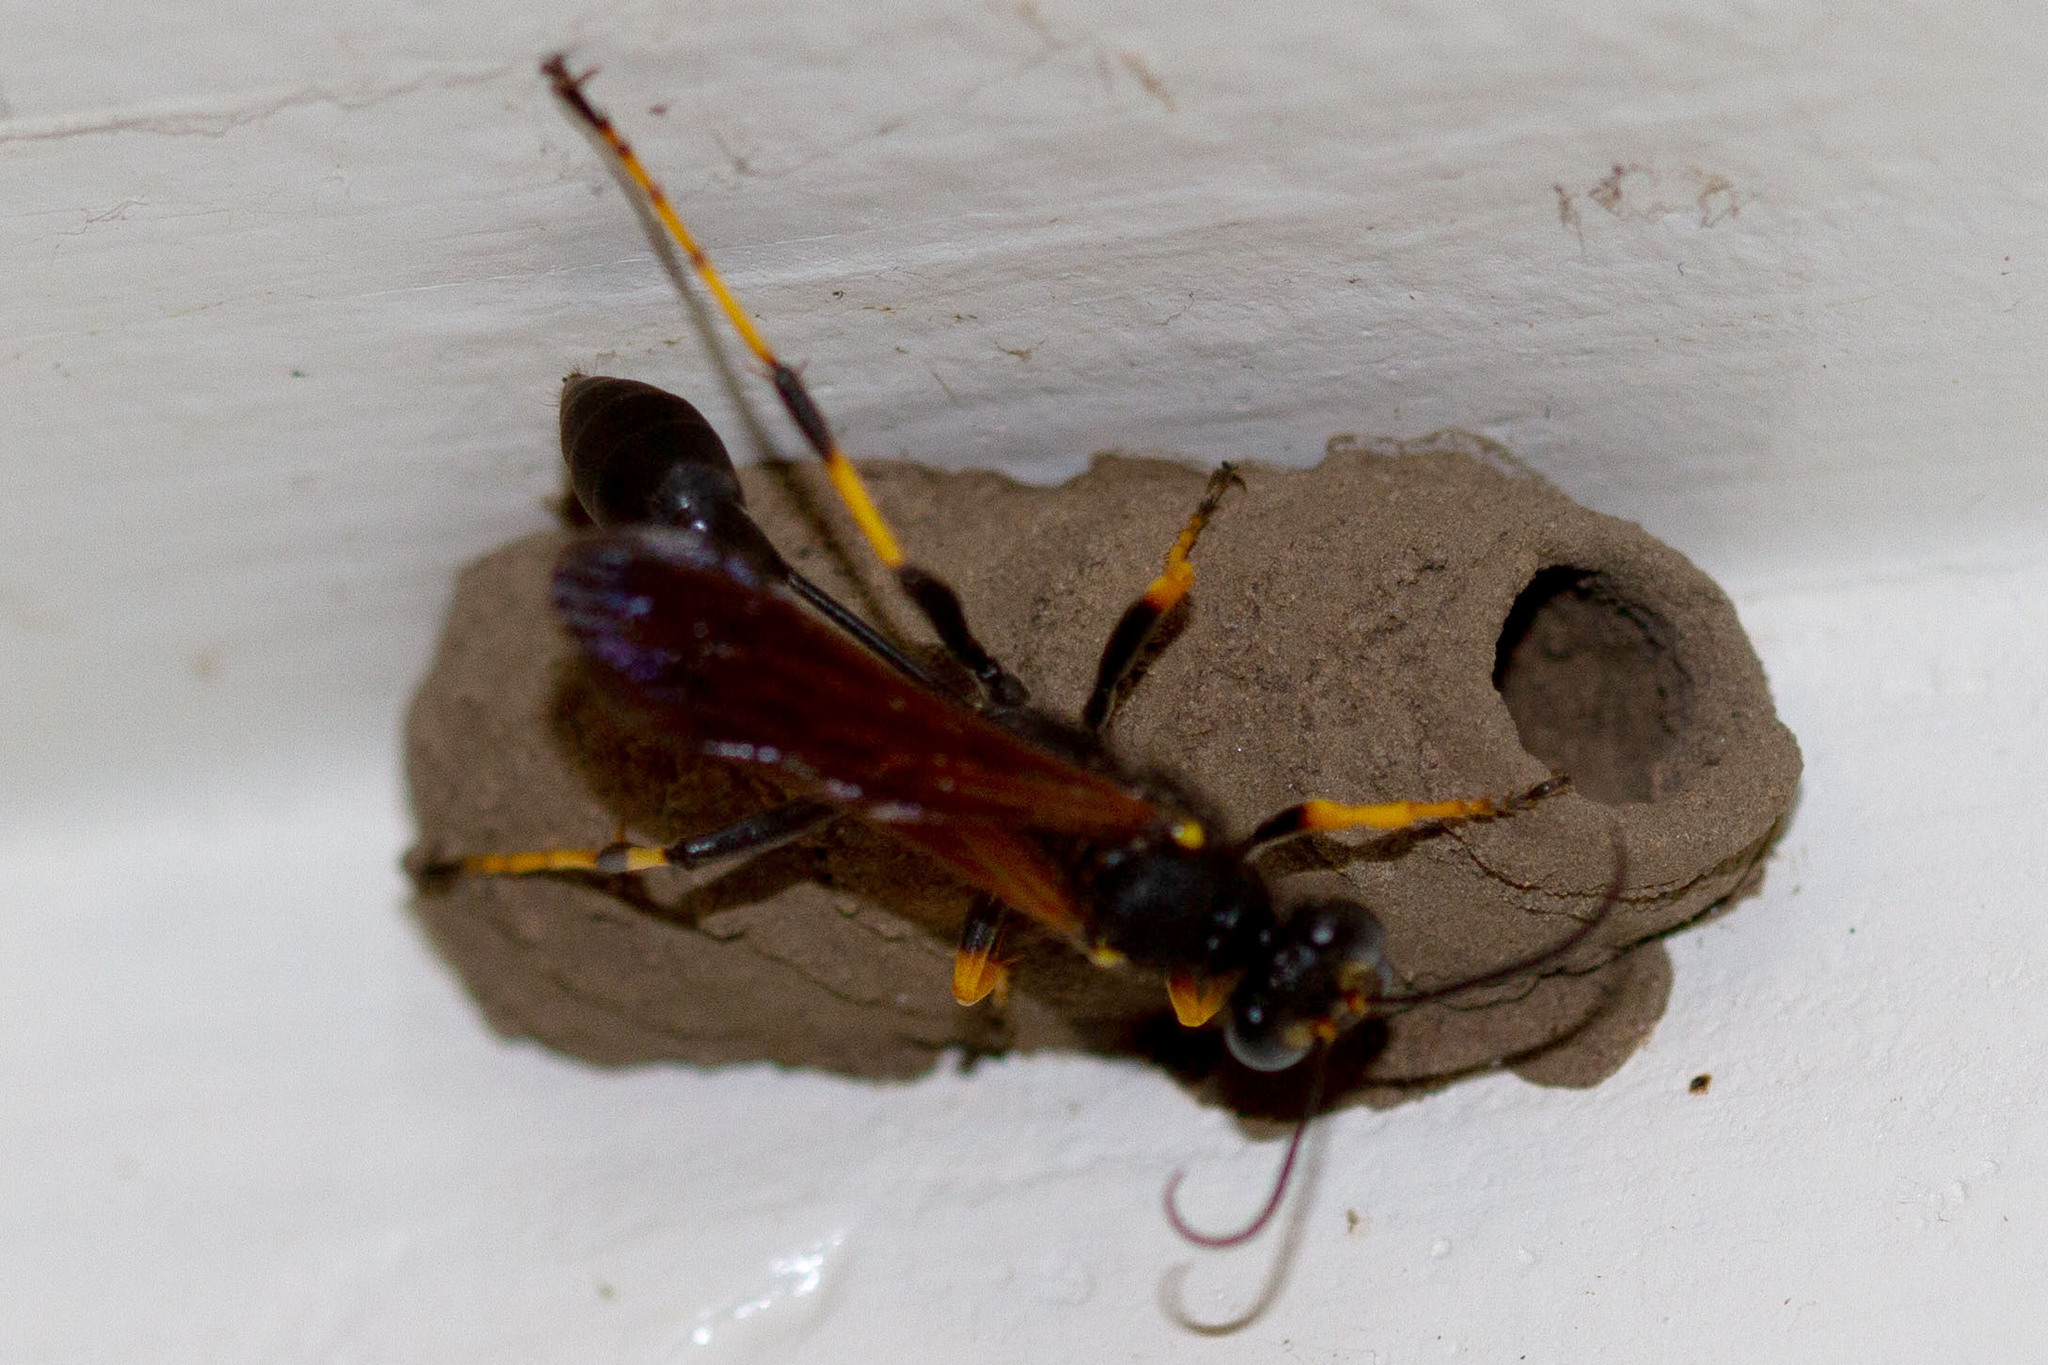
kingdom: Animalia
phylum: Arthropoda
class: Insecta
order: Hymenoptera
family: Sphecidae
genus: Sceliphron
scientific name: Sceliphron caementarium
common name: Mud dauber
